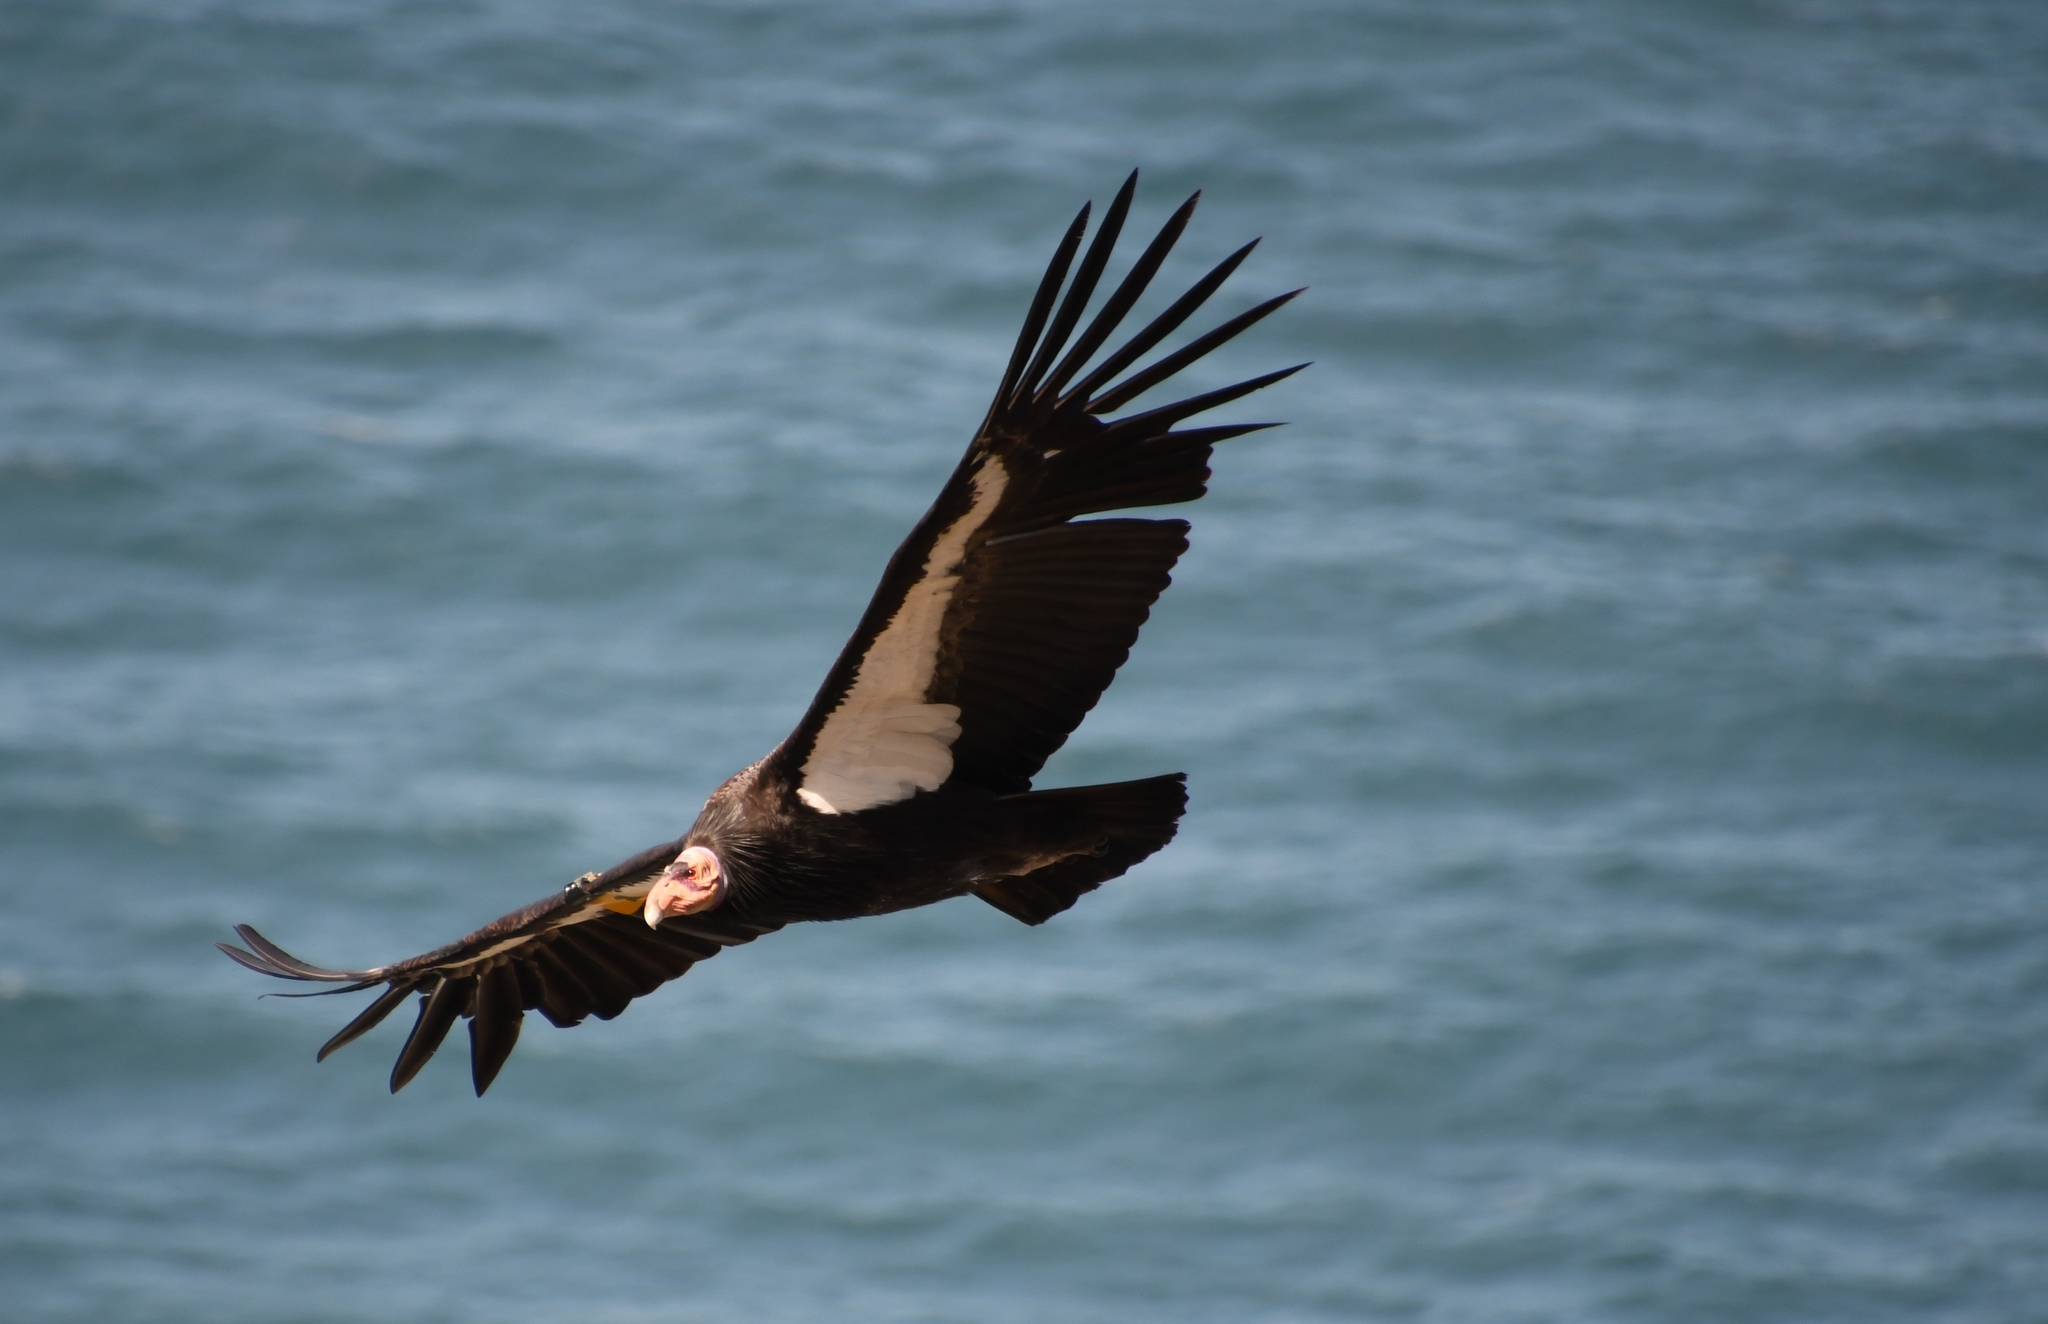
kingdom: Animalia
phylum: Chordata
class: Aves
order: Accipitriformes
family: Cathartidae
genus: Gymnogyps
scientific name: Gymnogyps californianus
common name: California condor
